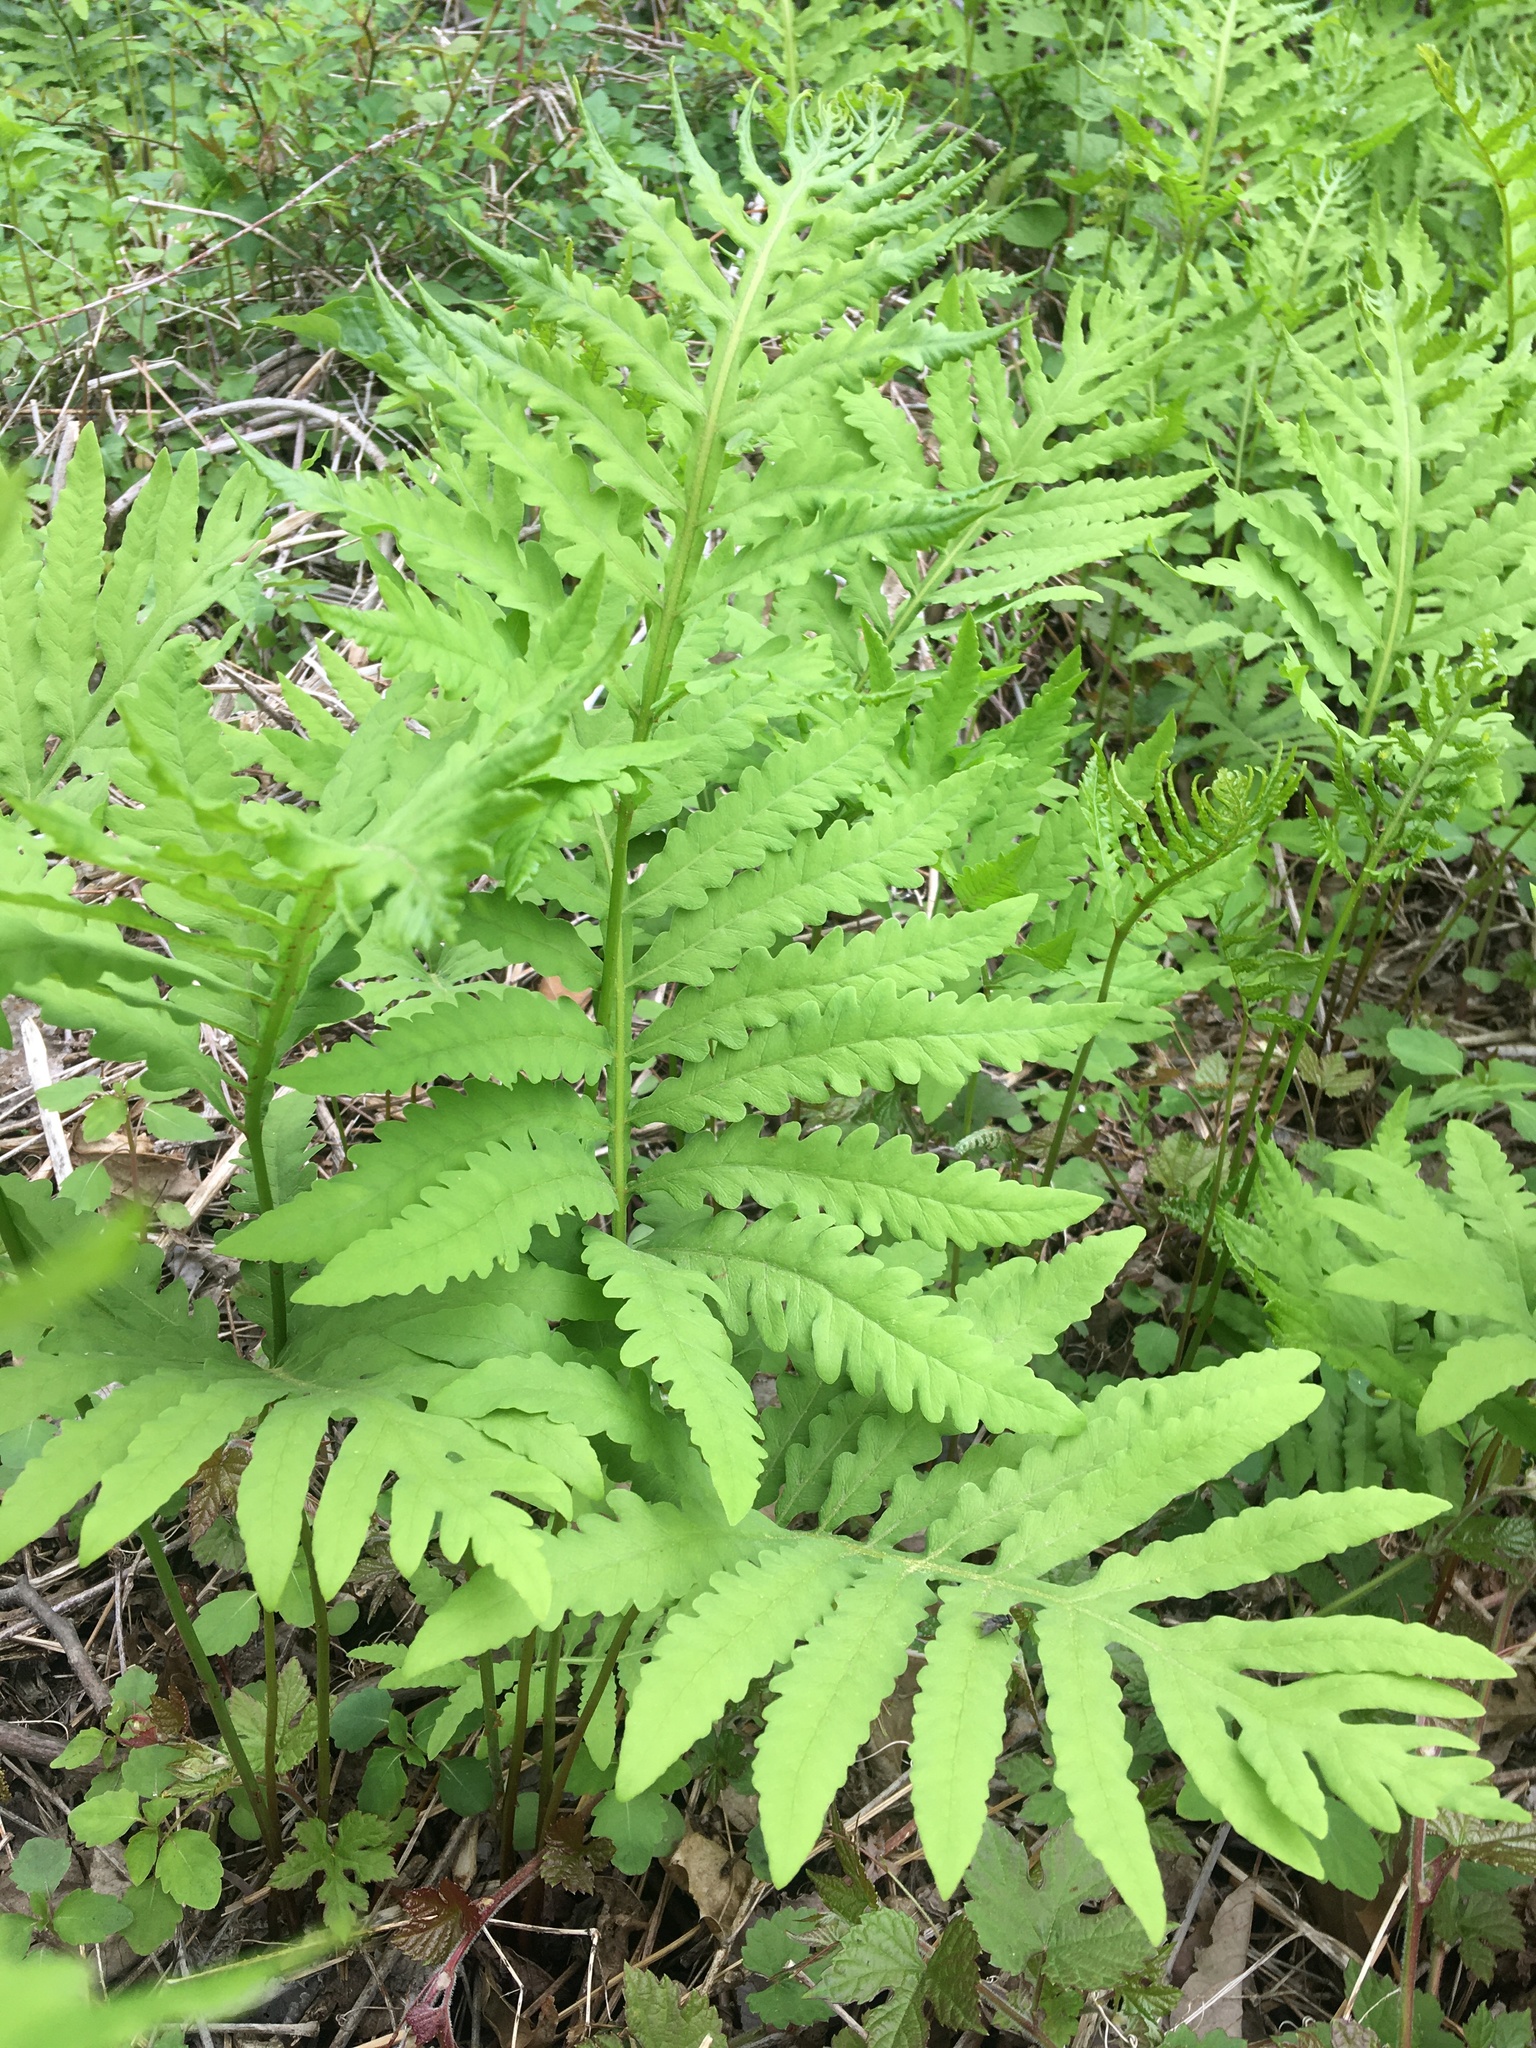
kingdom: Plantae
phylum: Tracheophyta
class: Polypodiopsida
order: Polypodiales
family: Onocleaceae
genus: Onoclea
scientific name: Onoclea sensibilis
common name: Sensitive fern
